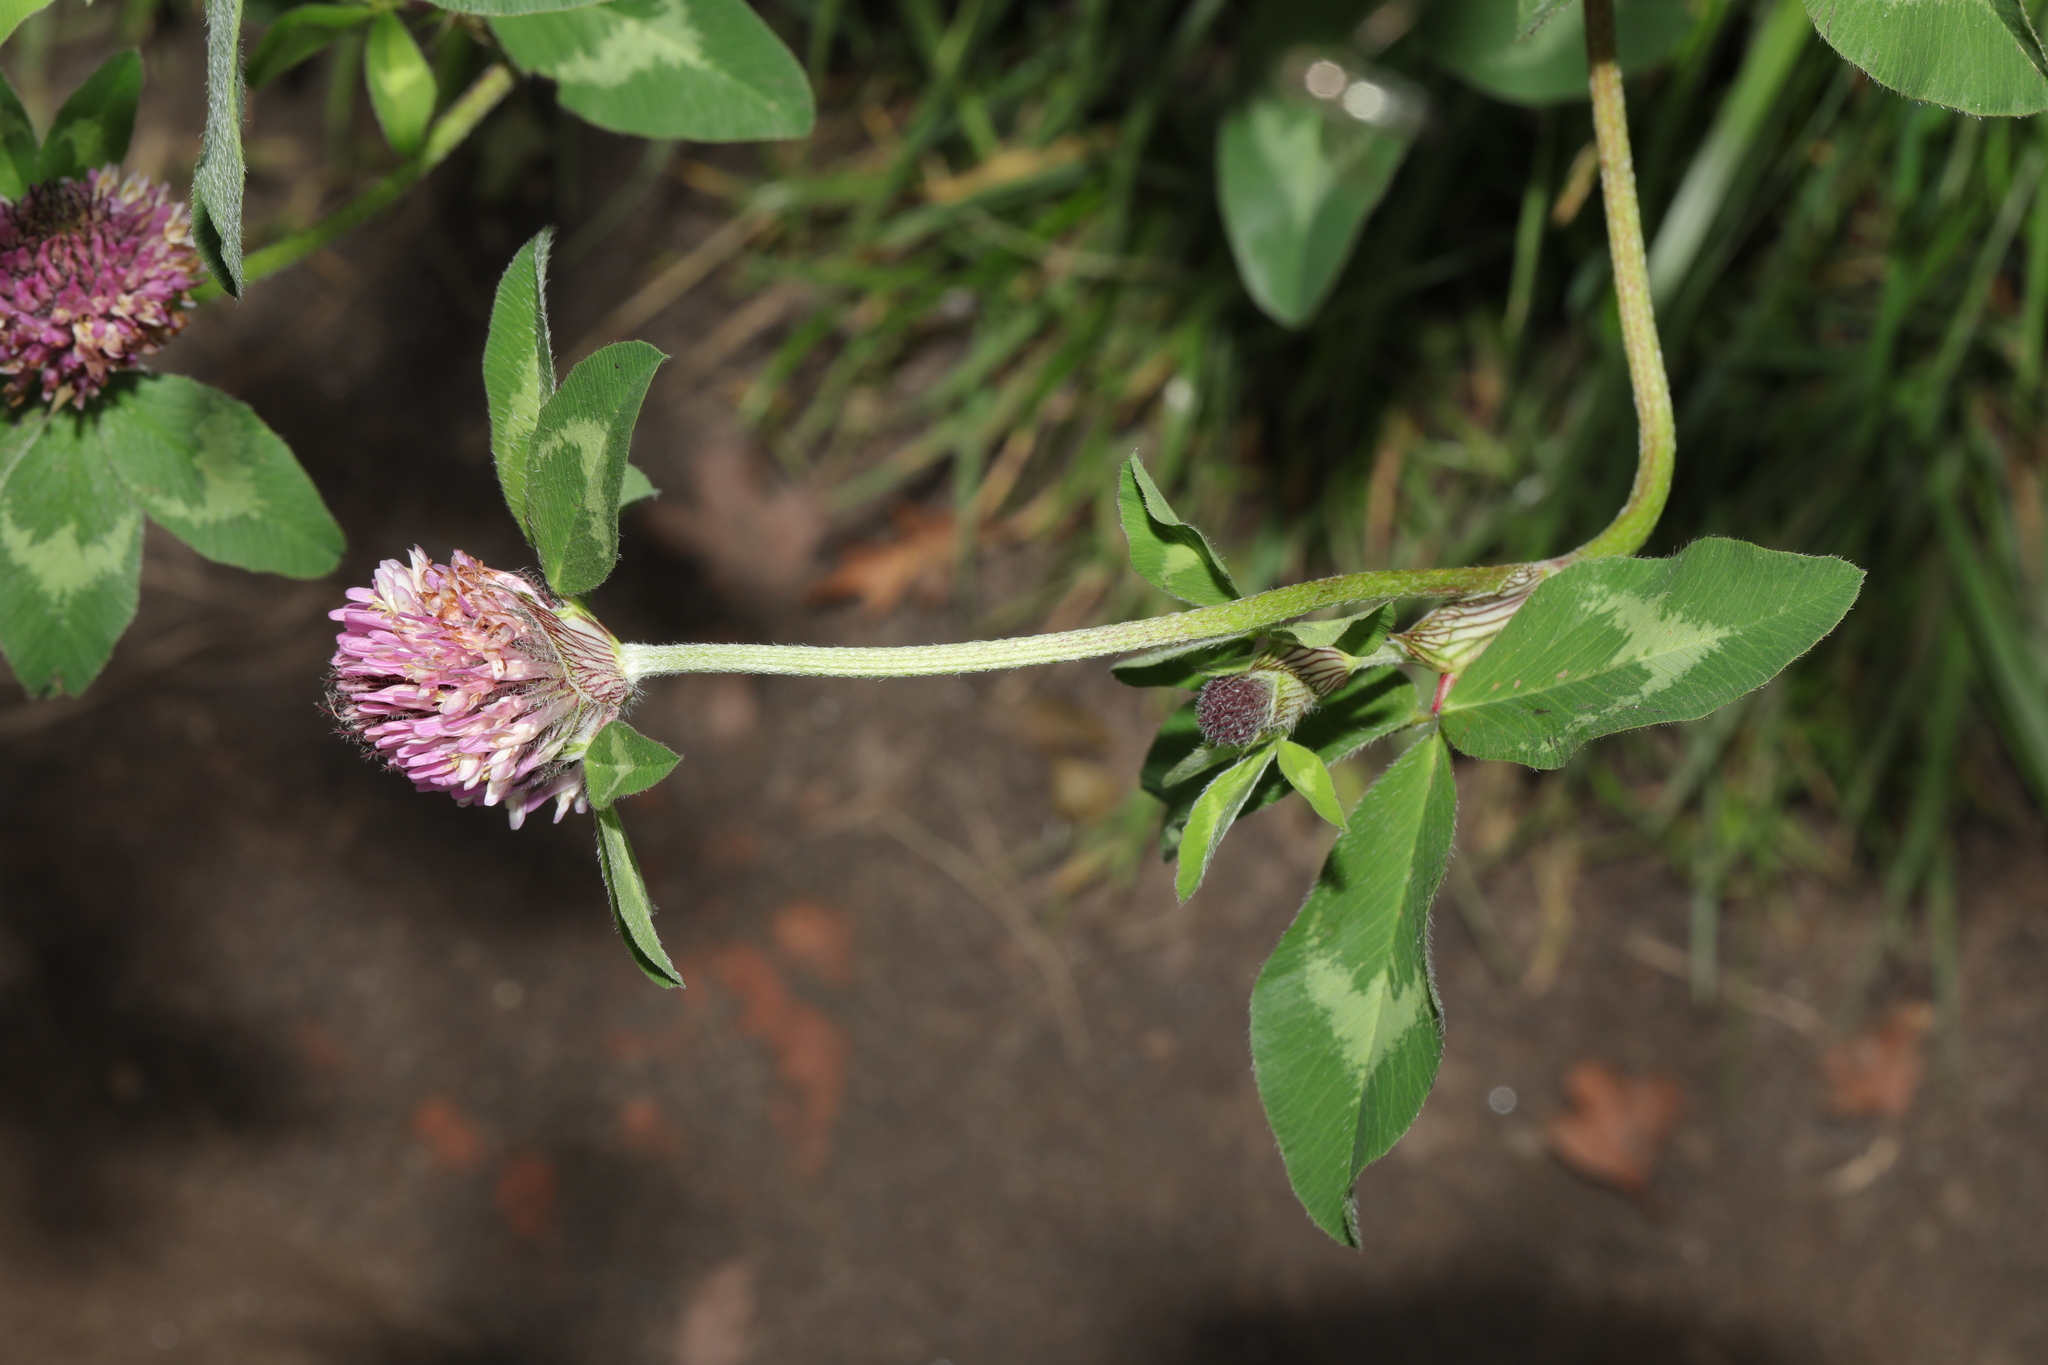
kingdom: Plantae
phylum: Tracheophyta
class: Magnoliopsida
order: Fabales
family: Fabaceae
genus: Trifolium
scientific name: Trifolium pratense
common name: Red clover
